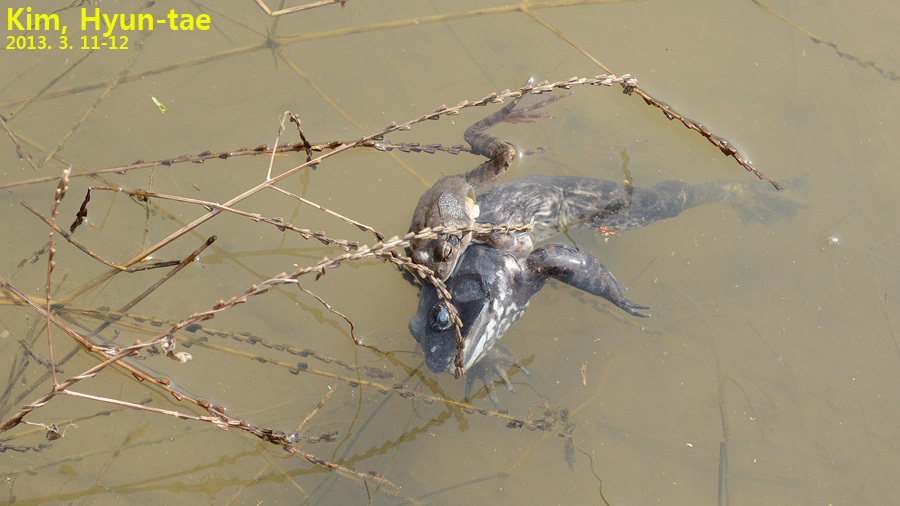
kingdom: Animalia
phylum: Chordata
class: Amphibia
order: Anura
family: Ranidae
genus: Rana
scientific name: Rana uenoi
